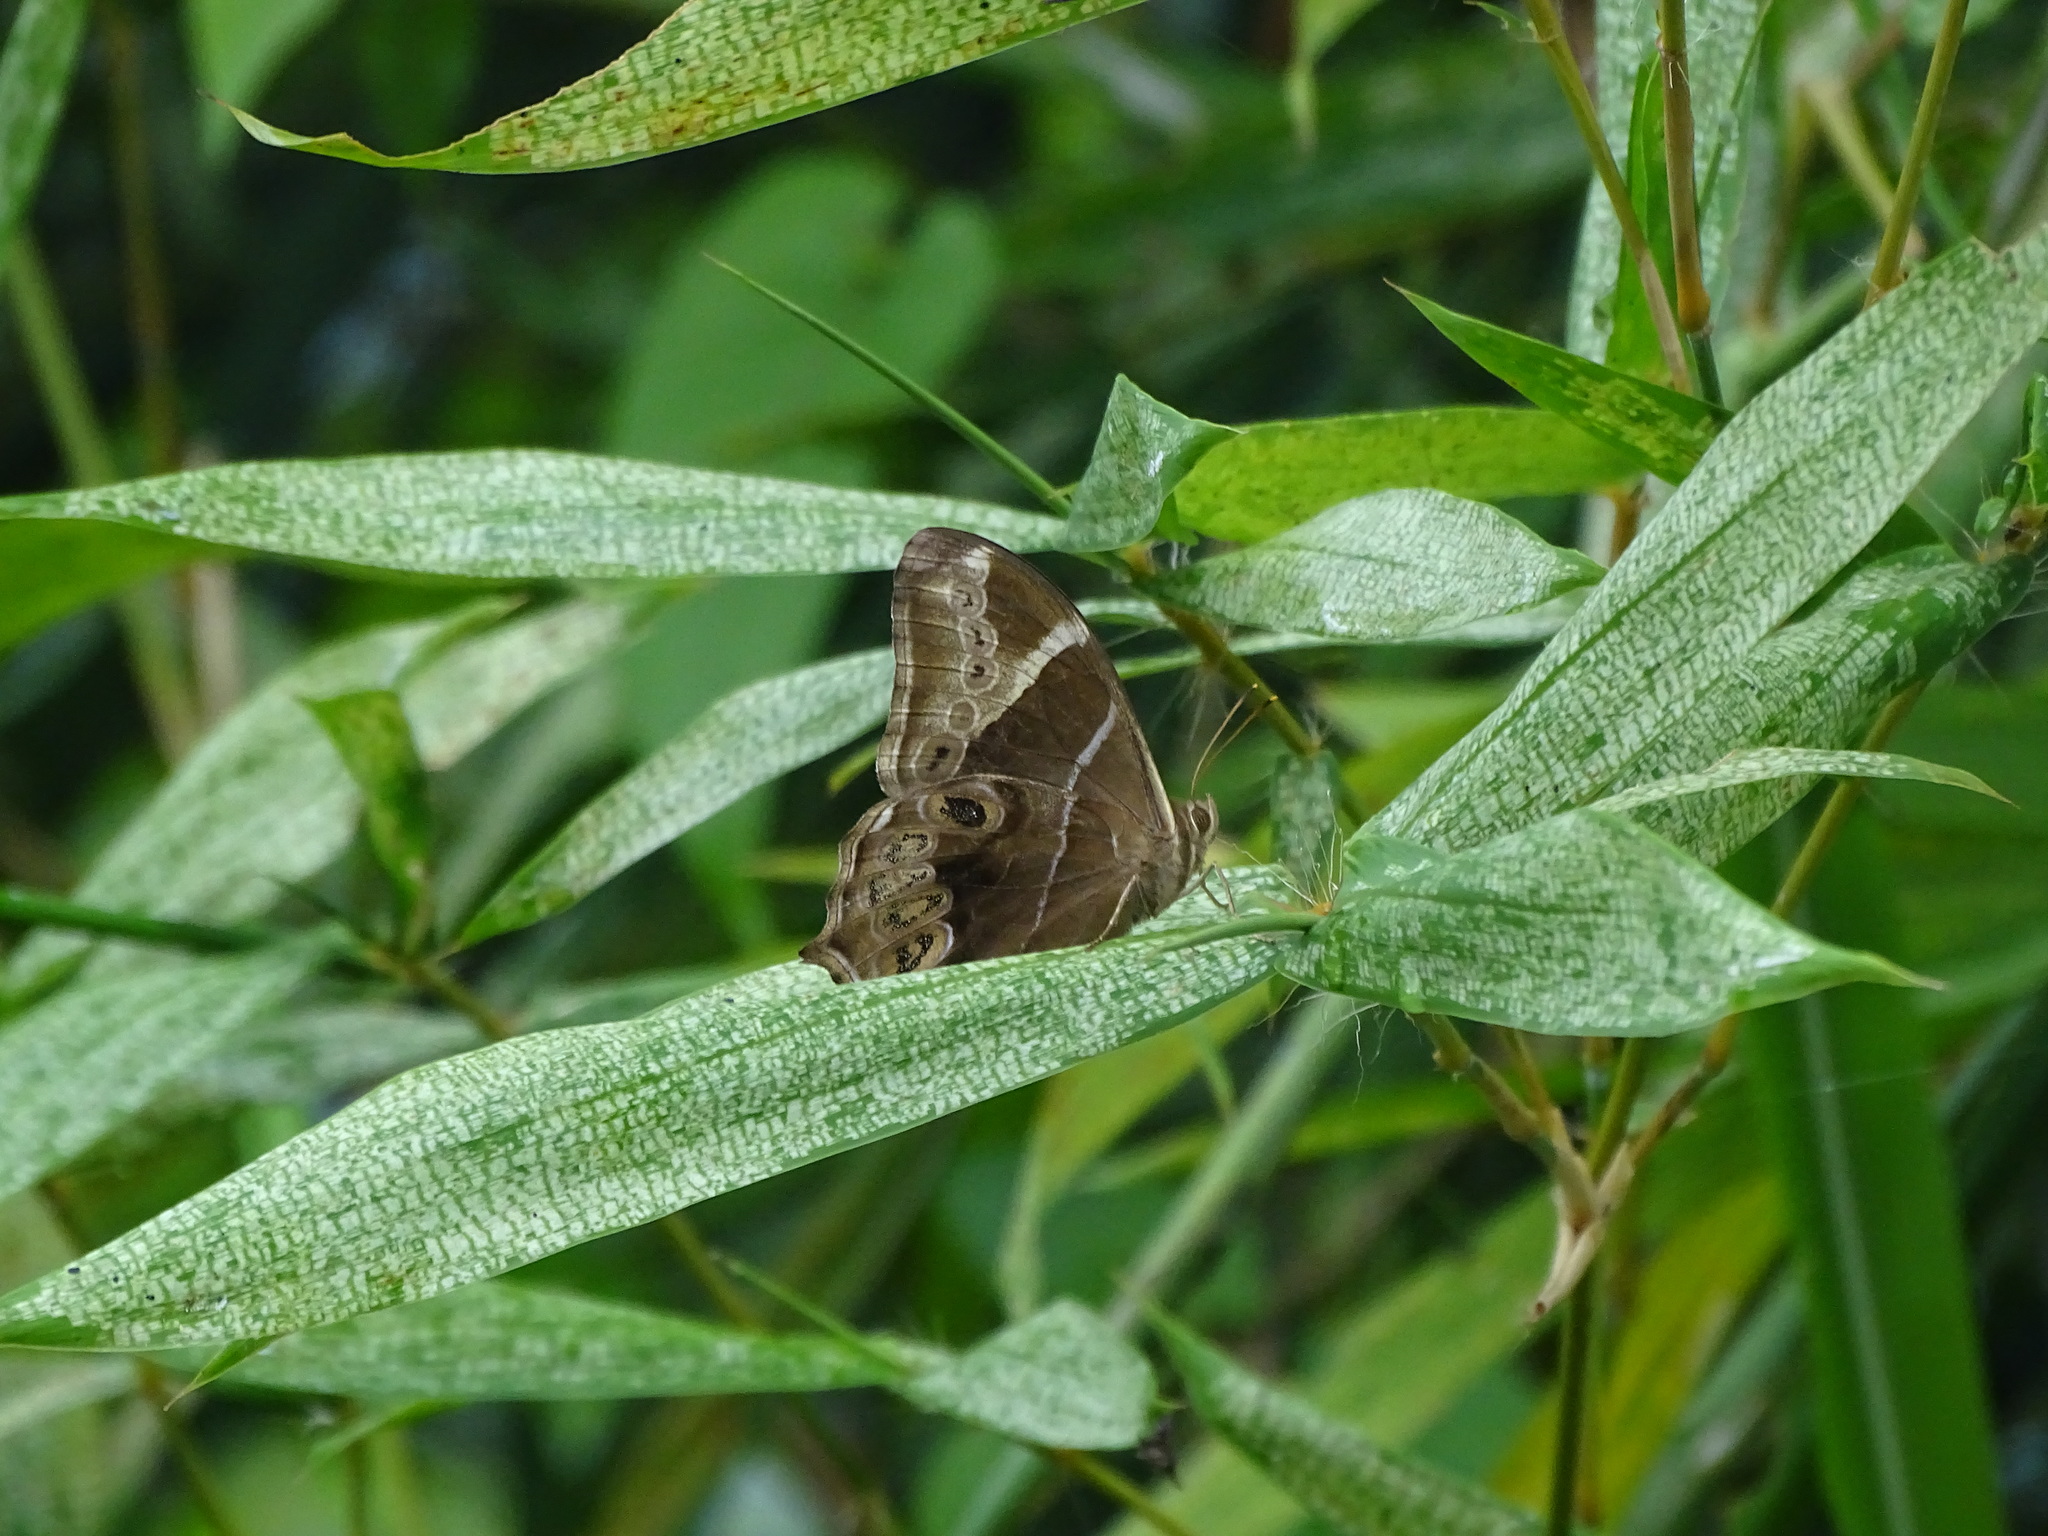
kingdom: Animalia
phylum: Arthropoda
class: Insecta
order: Lepidoptera
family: Nymphalidae
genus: Lethe
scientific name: Lethe europa
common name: Bamboo treebrown
